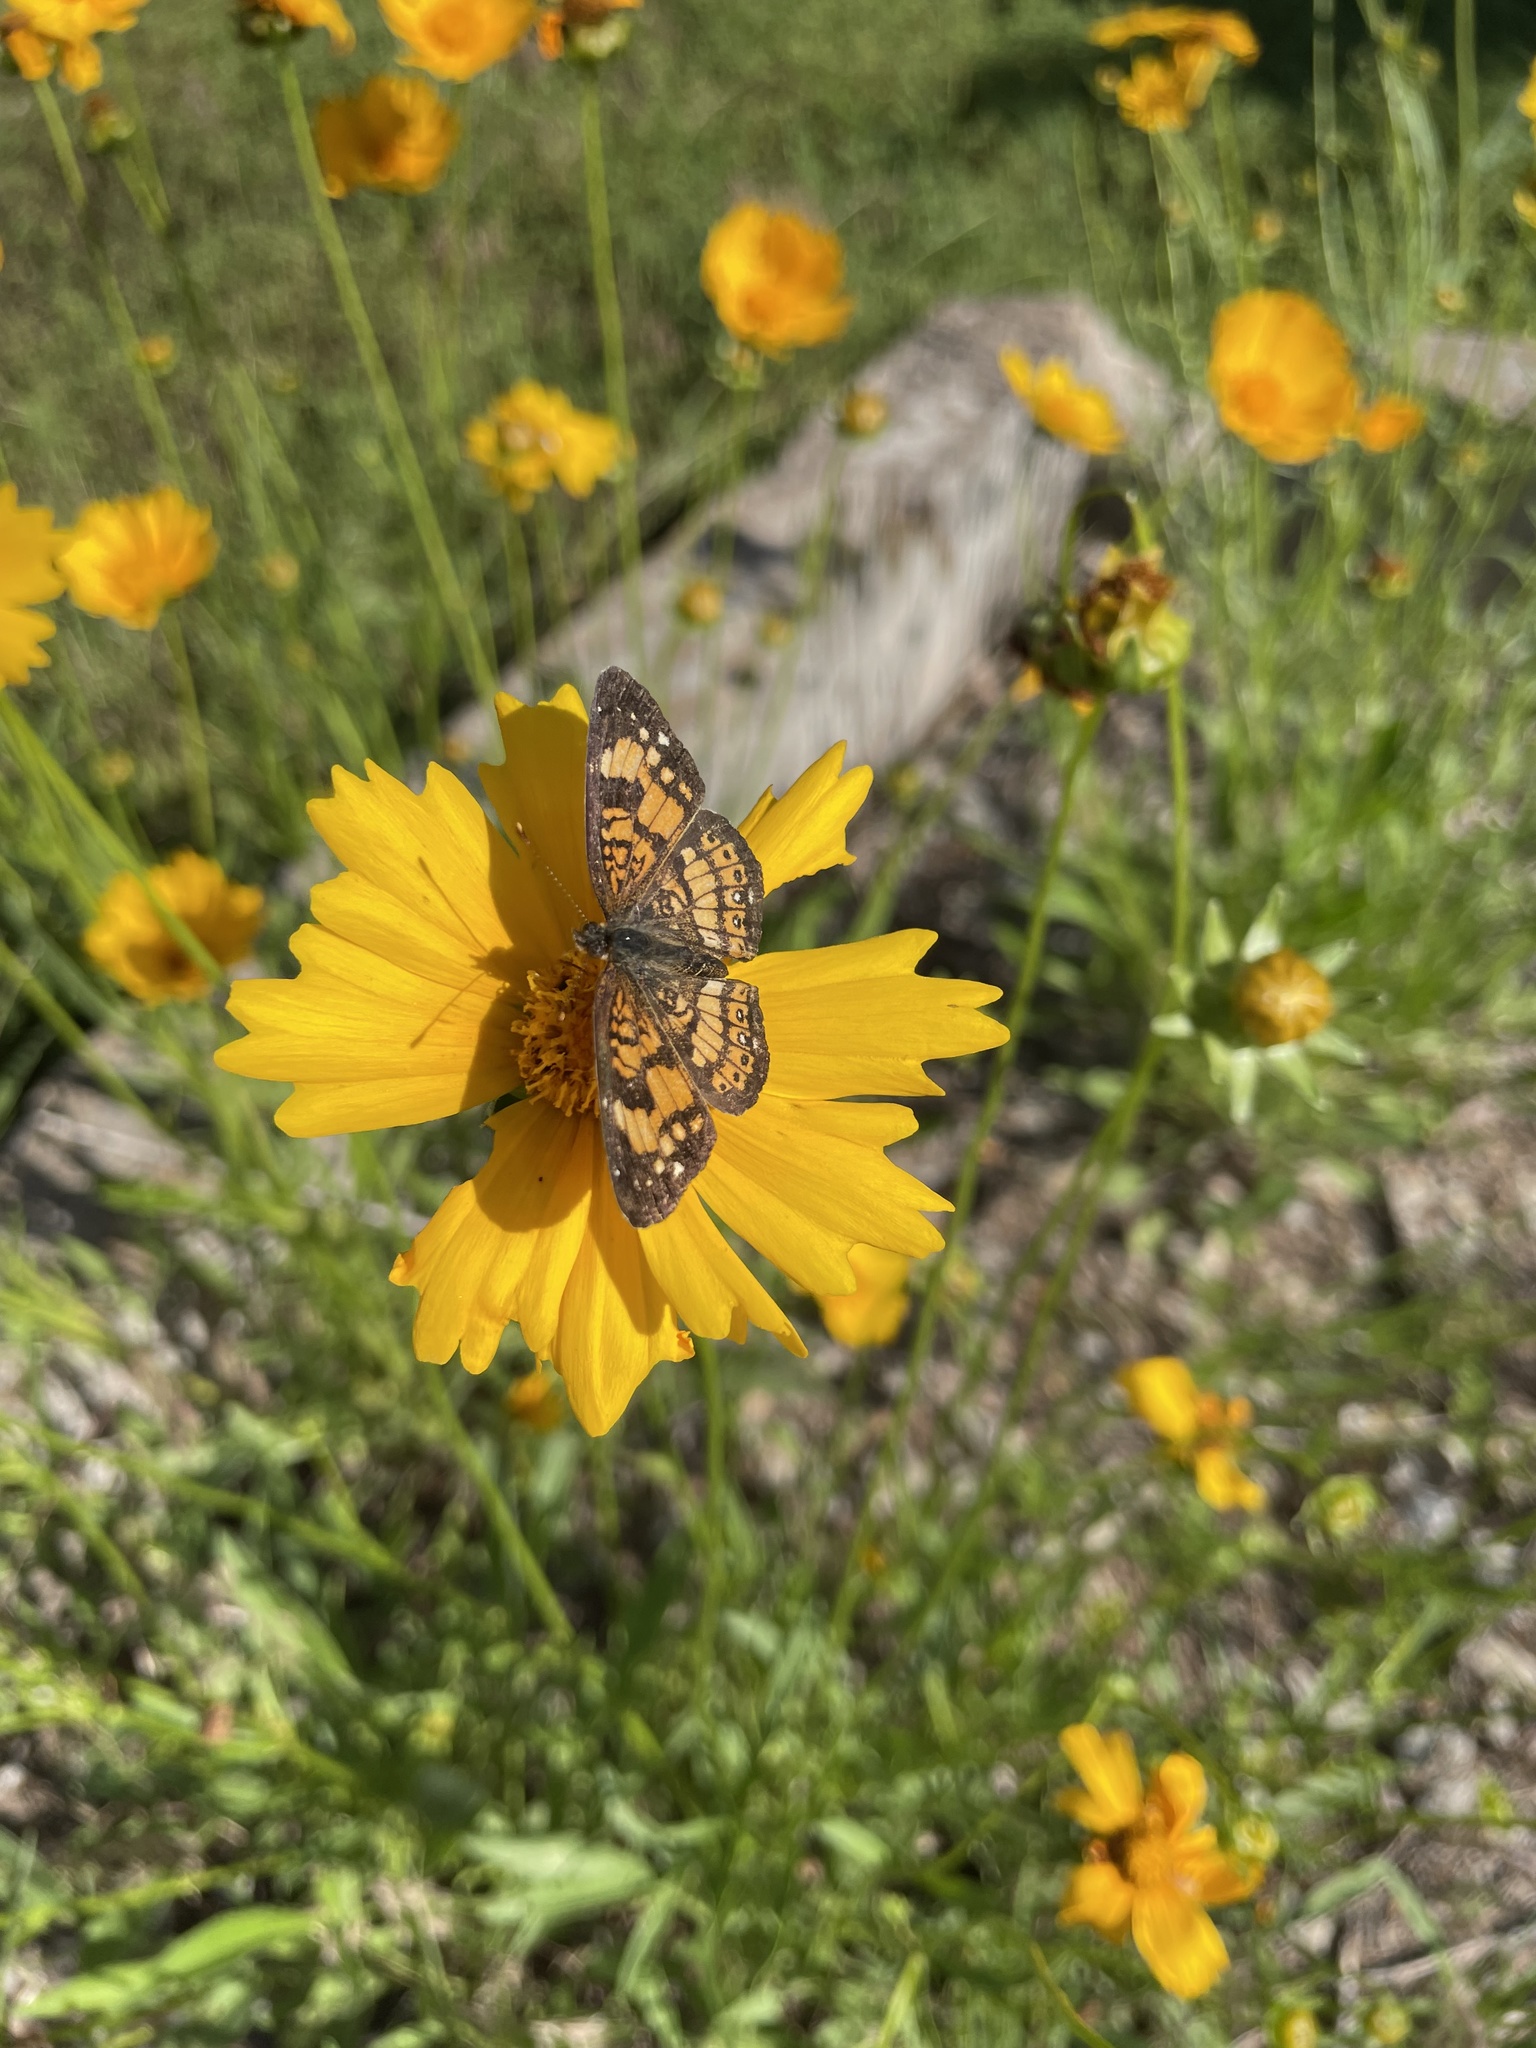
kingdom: Animalia
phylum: Arthropoda
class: Insecta
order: Lepidoptera
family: Nymphalidae
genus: Chlosyne
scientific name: Chlosyne nycteis
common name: Silvery checkerspot
